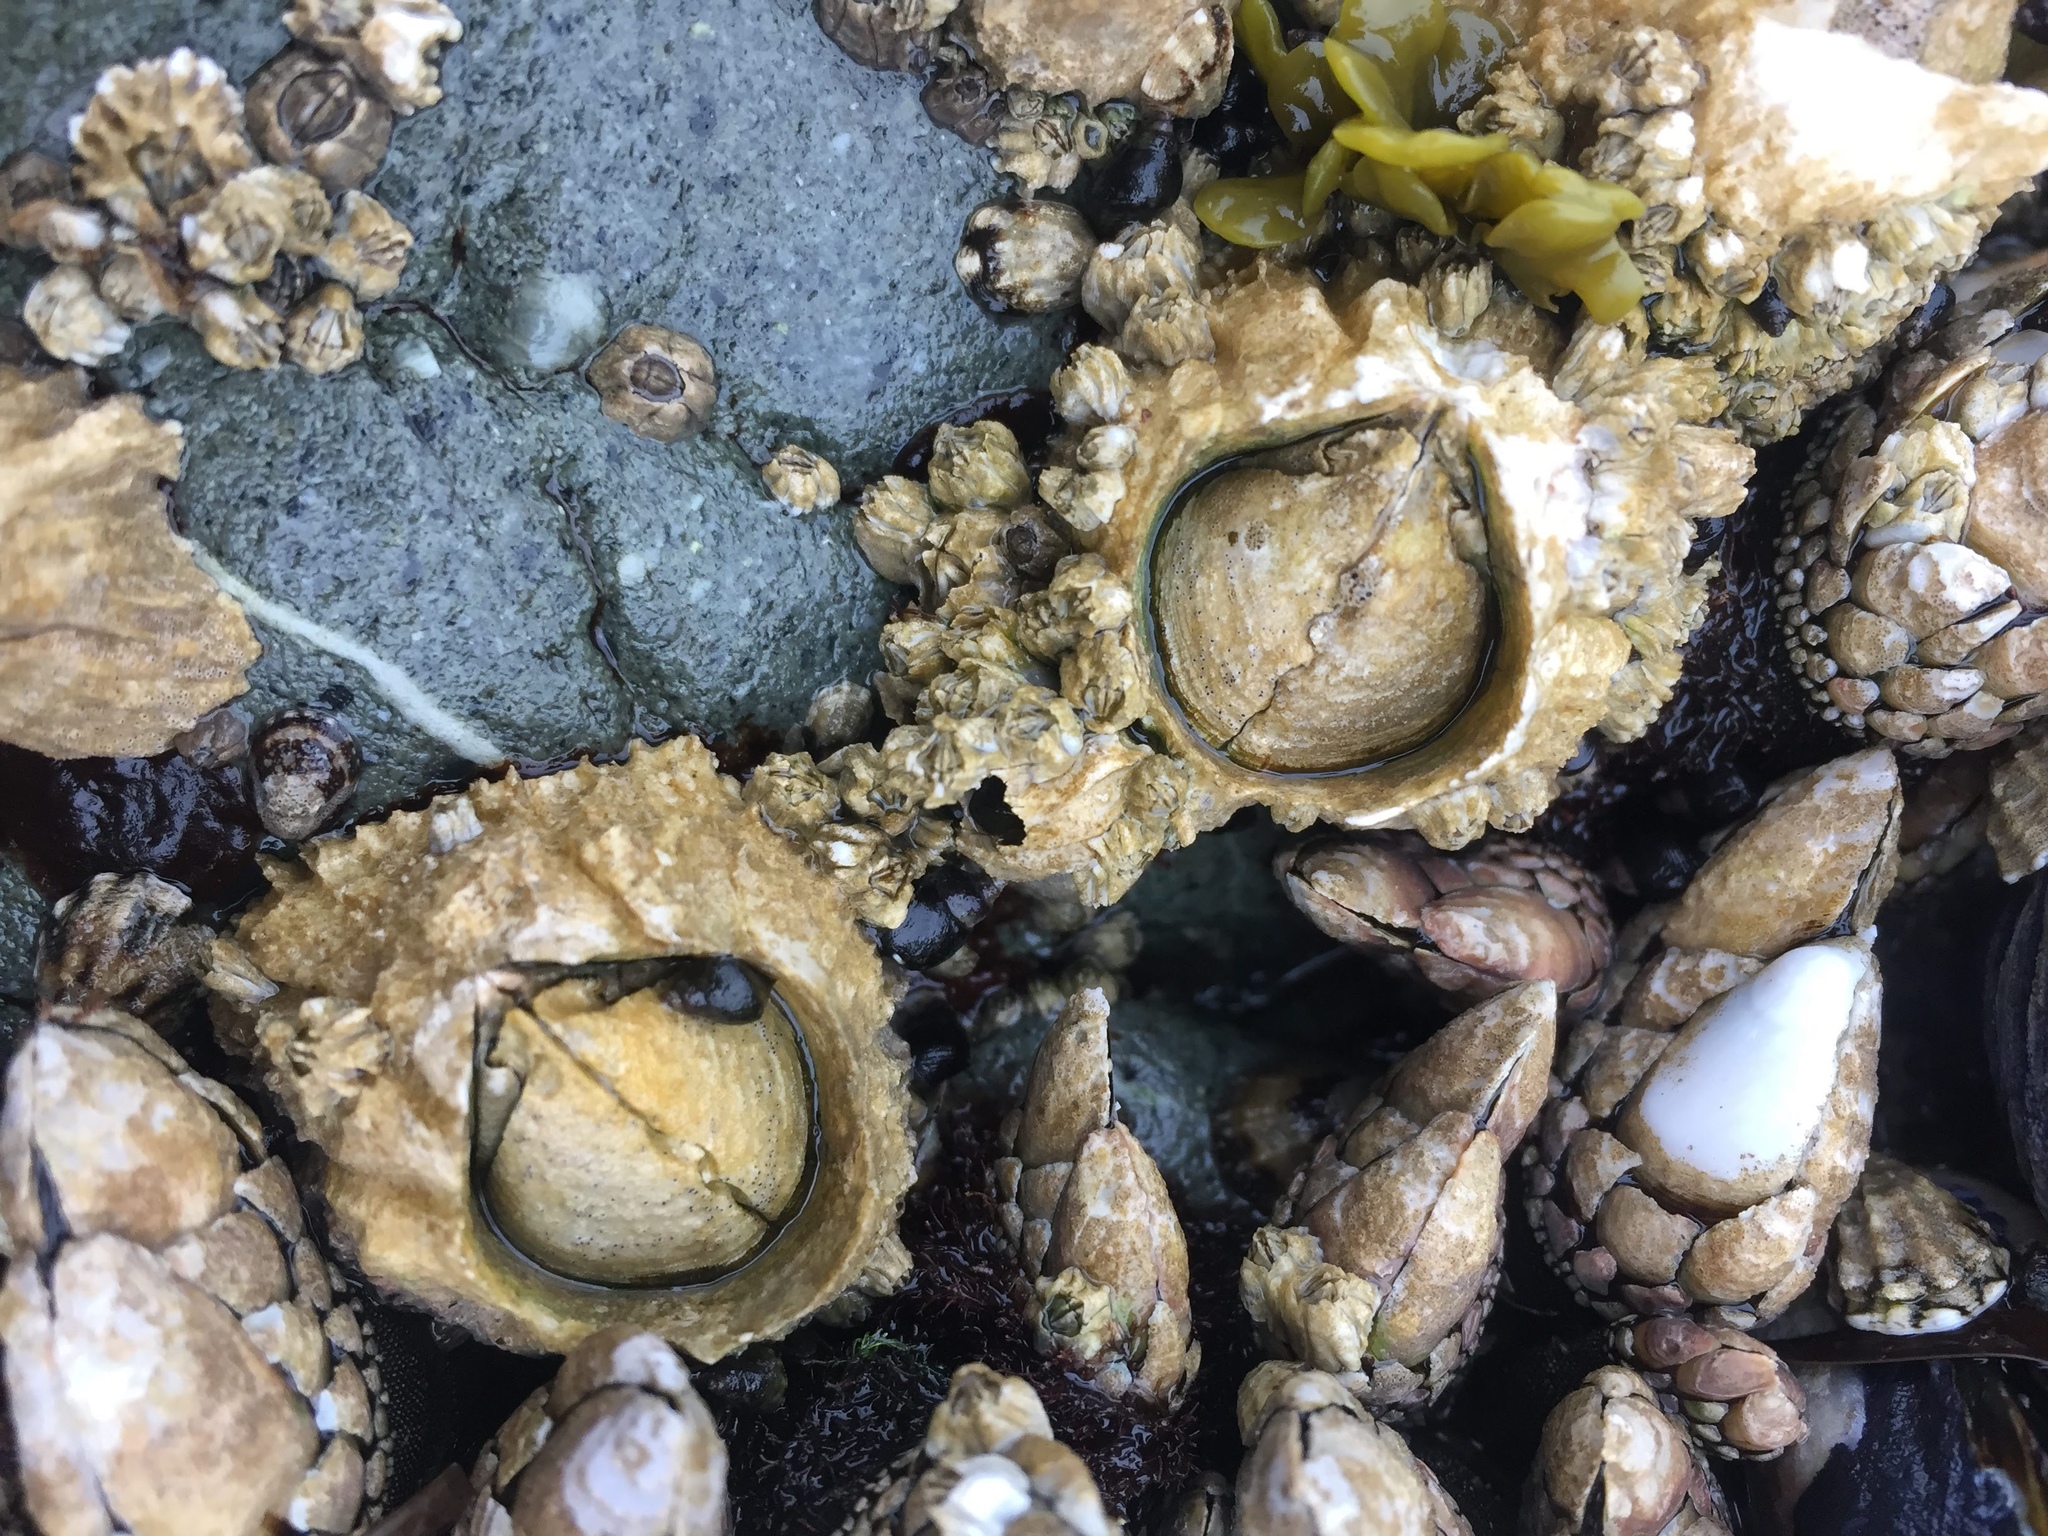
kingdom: Animalia
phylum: Arthropoda
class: Maxillopoda
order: Sessilia
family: Archaeobalanidae
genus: Semibalanus
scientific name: Semibalanus cariosus
